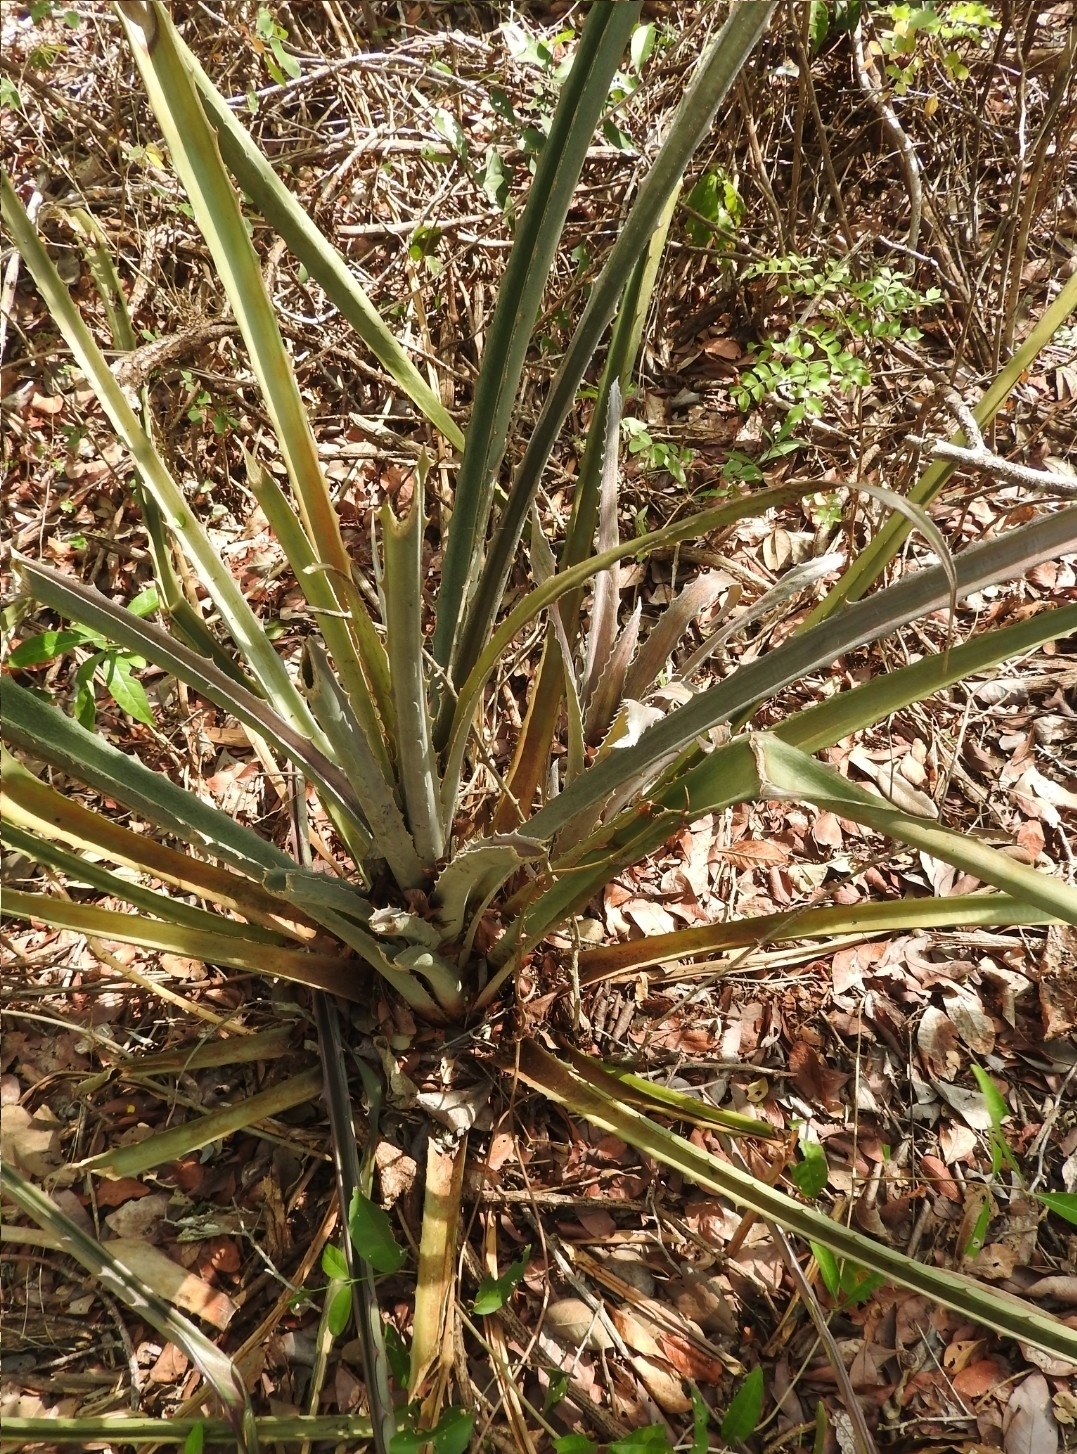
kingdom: Plantae
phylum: Tracheophyta
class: Liliopsida
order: Poales
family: Bromeliaceae
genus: Bromelia
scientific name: Bromelia pinguin
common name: Pinguin
